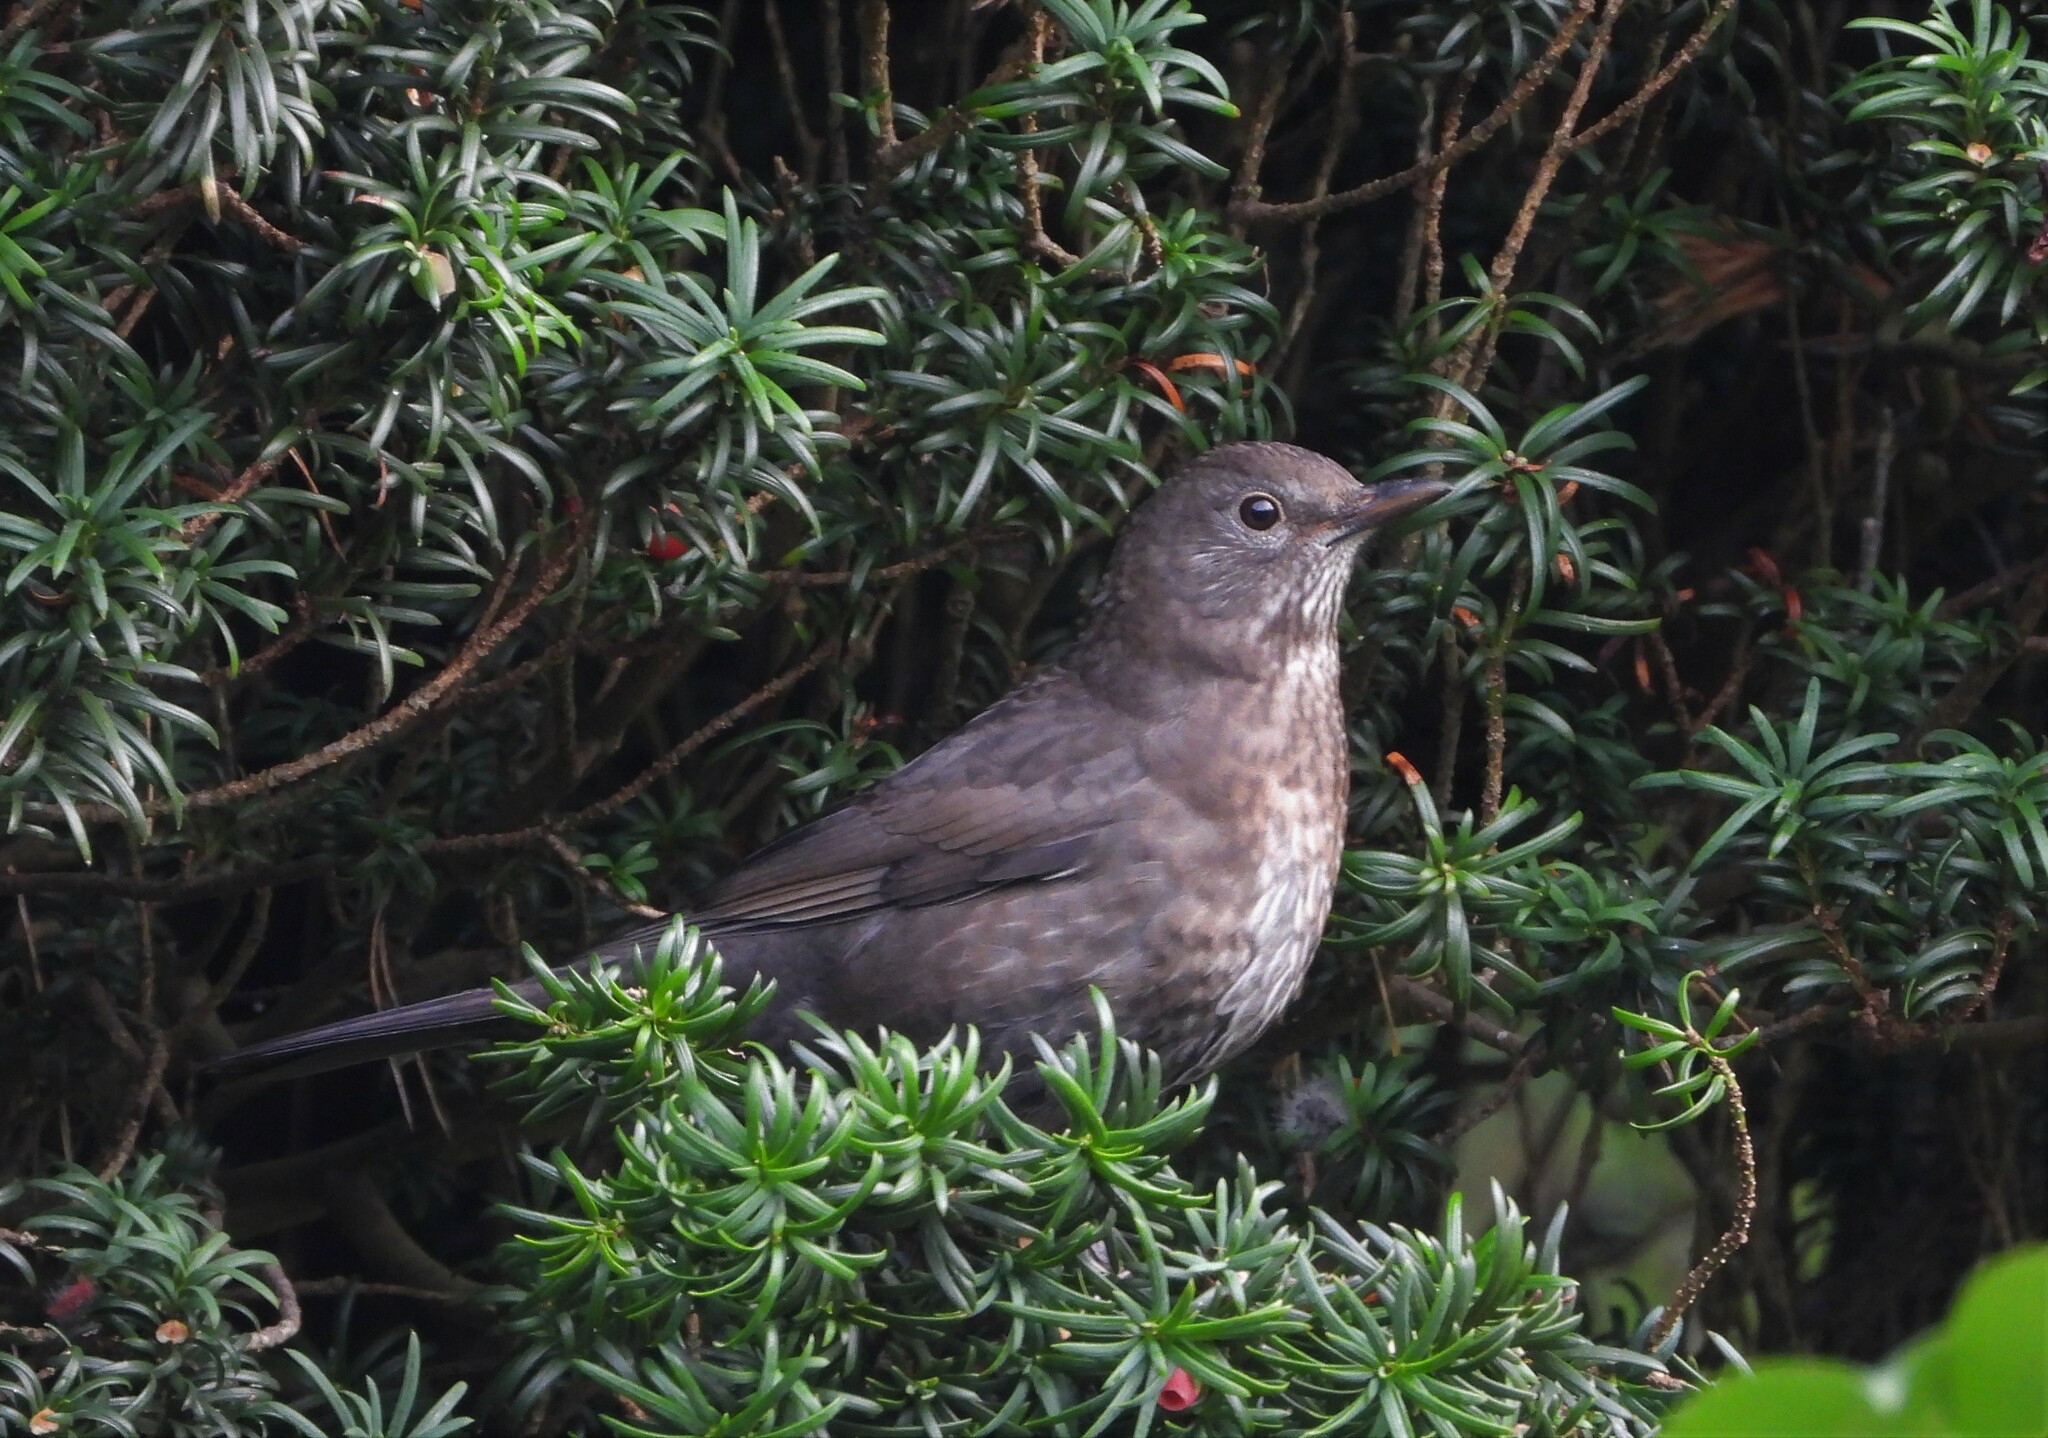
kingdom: Animalia
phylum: Chordata
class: Aves
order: Passeriformes
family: Turdidae
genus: Turdus
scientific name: Turdus merula
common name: Common blackbird
